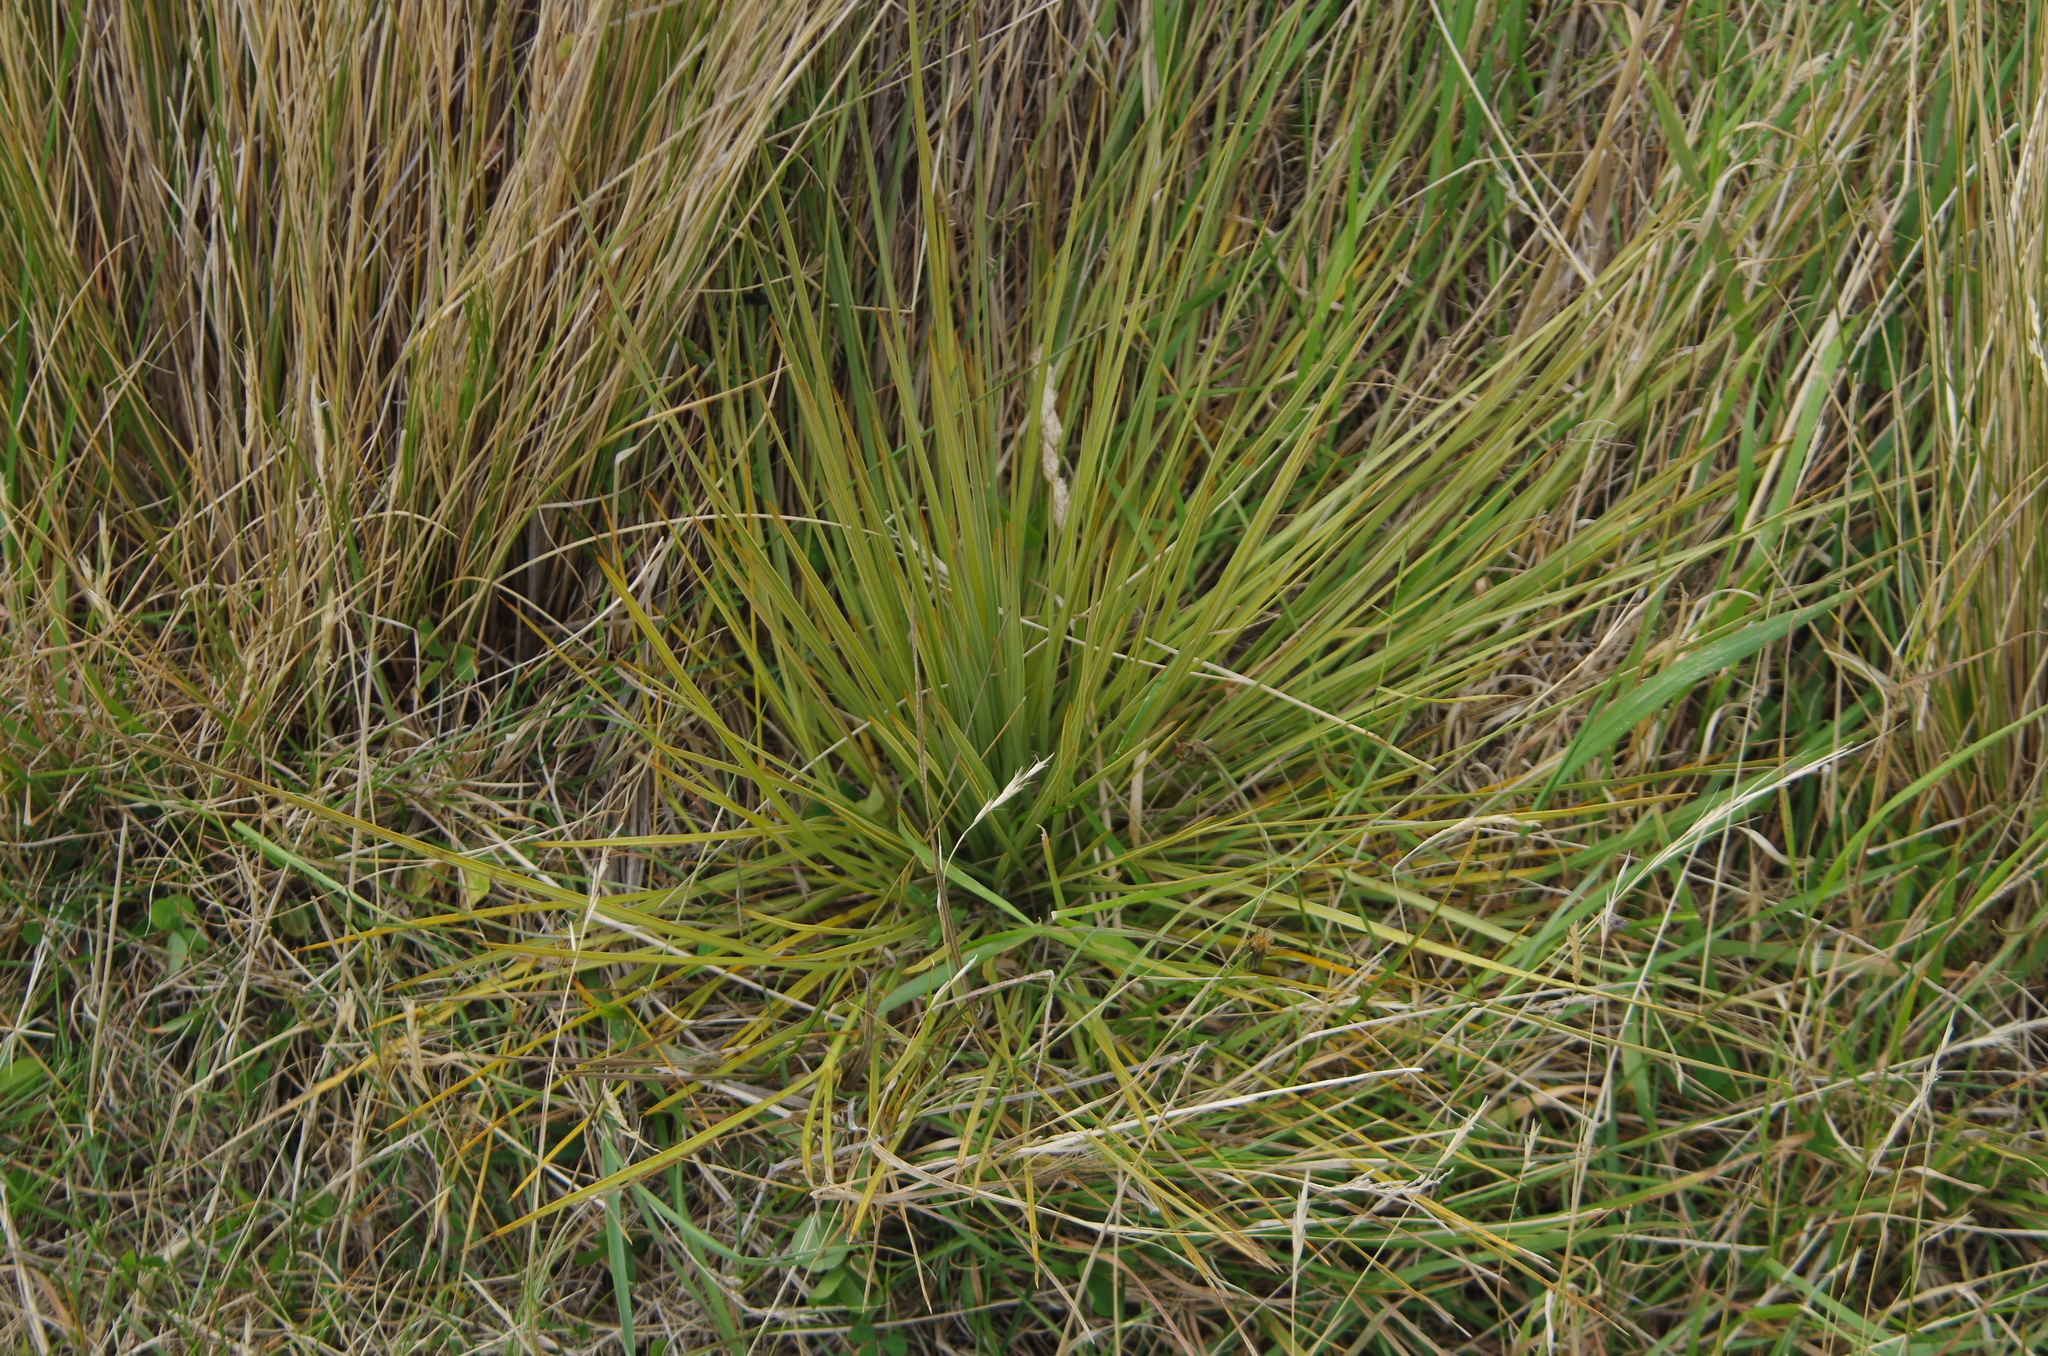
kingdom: Plantae
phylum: Tracheophyta
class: Magnoliopsida
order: Apiales
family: Apiaceae
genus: Aciphylla
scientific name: Aciphylla subflabellata
